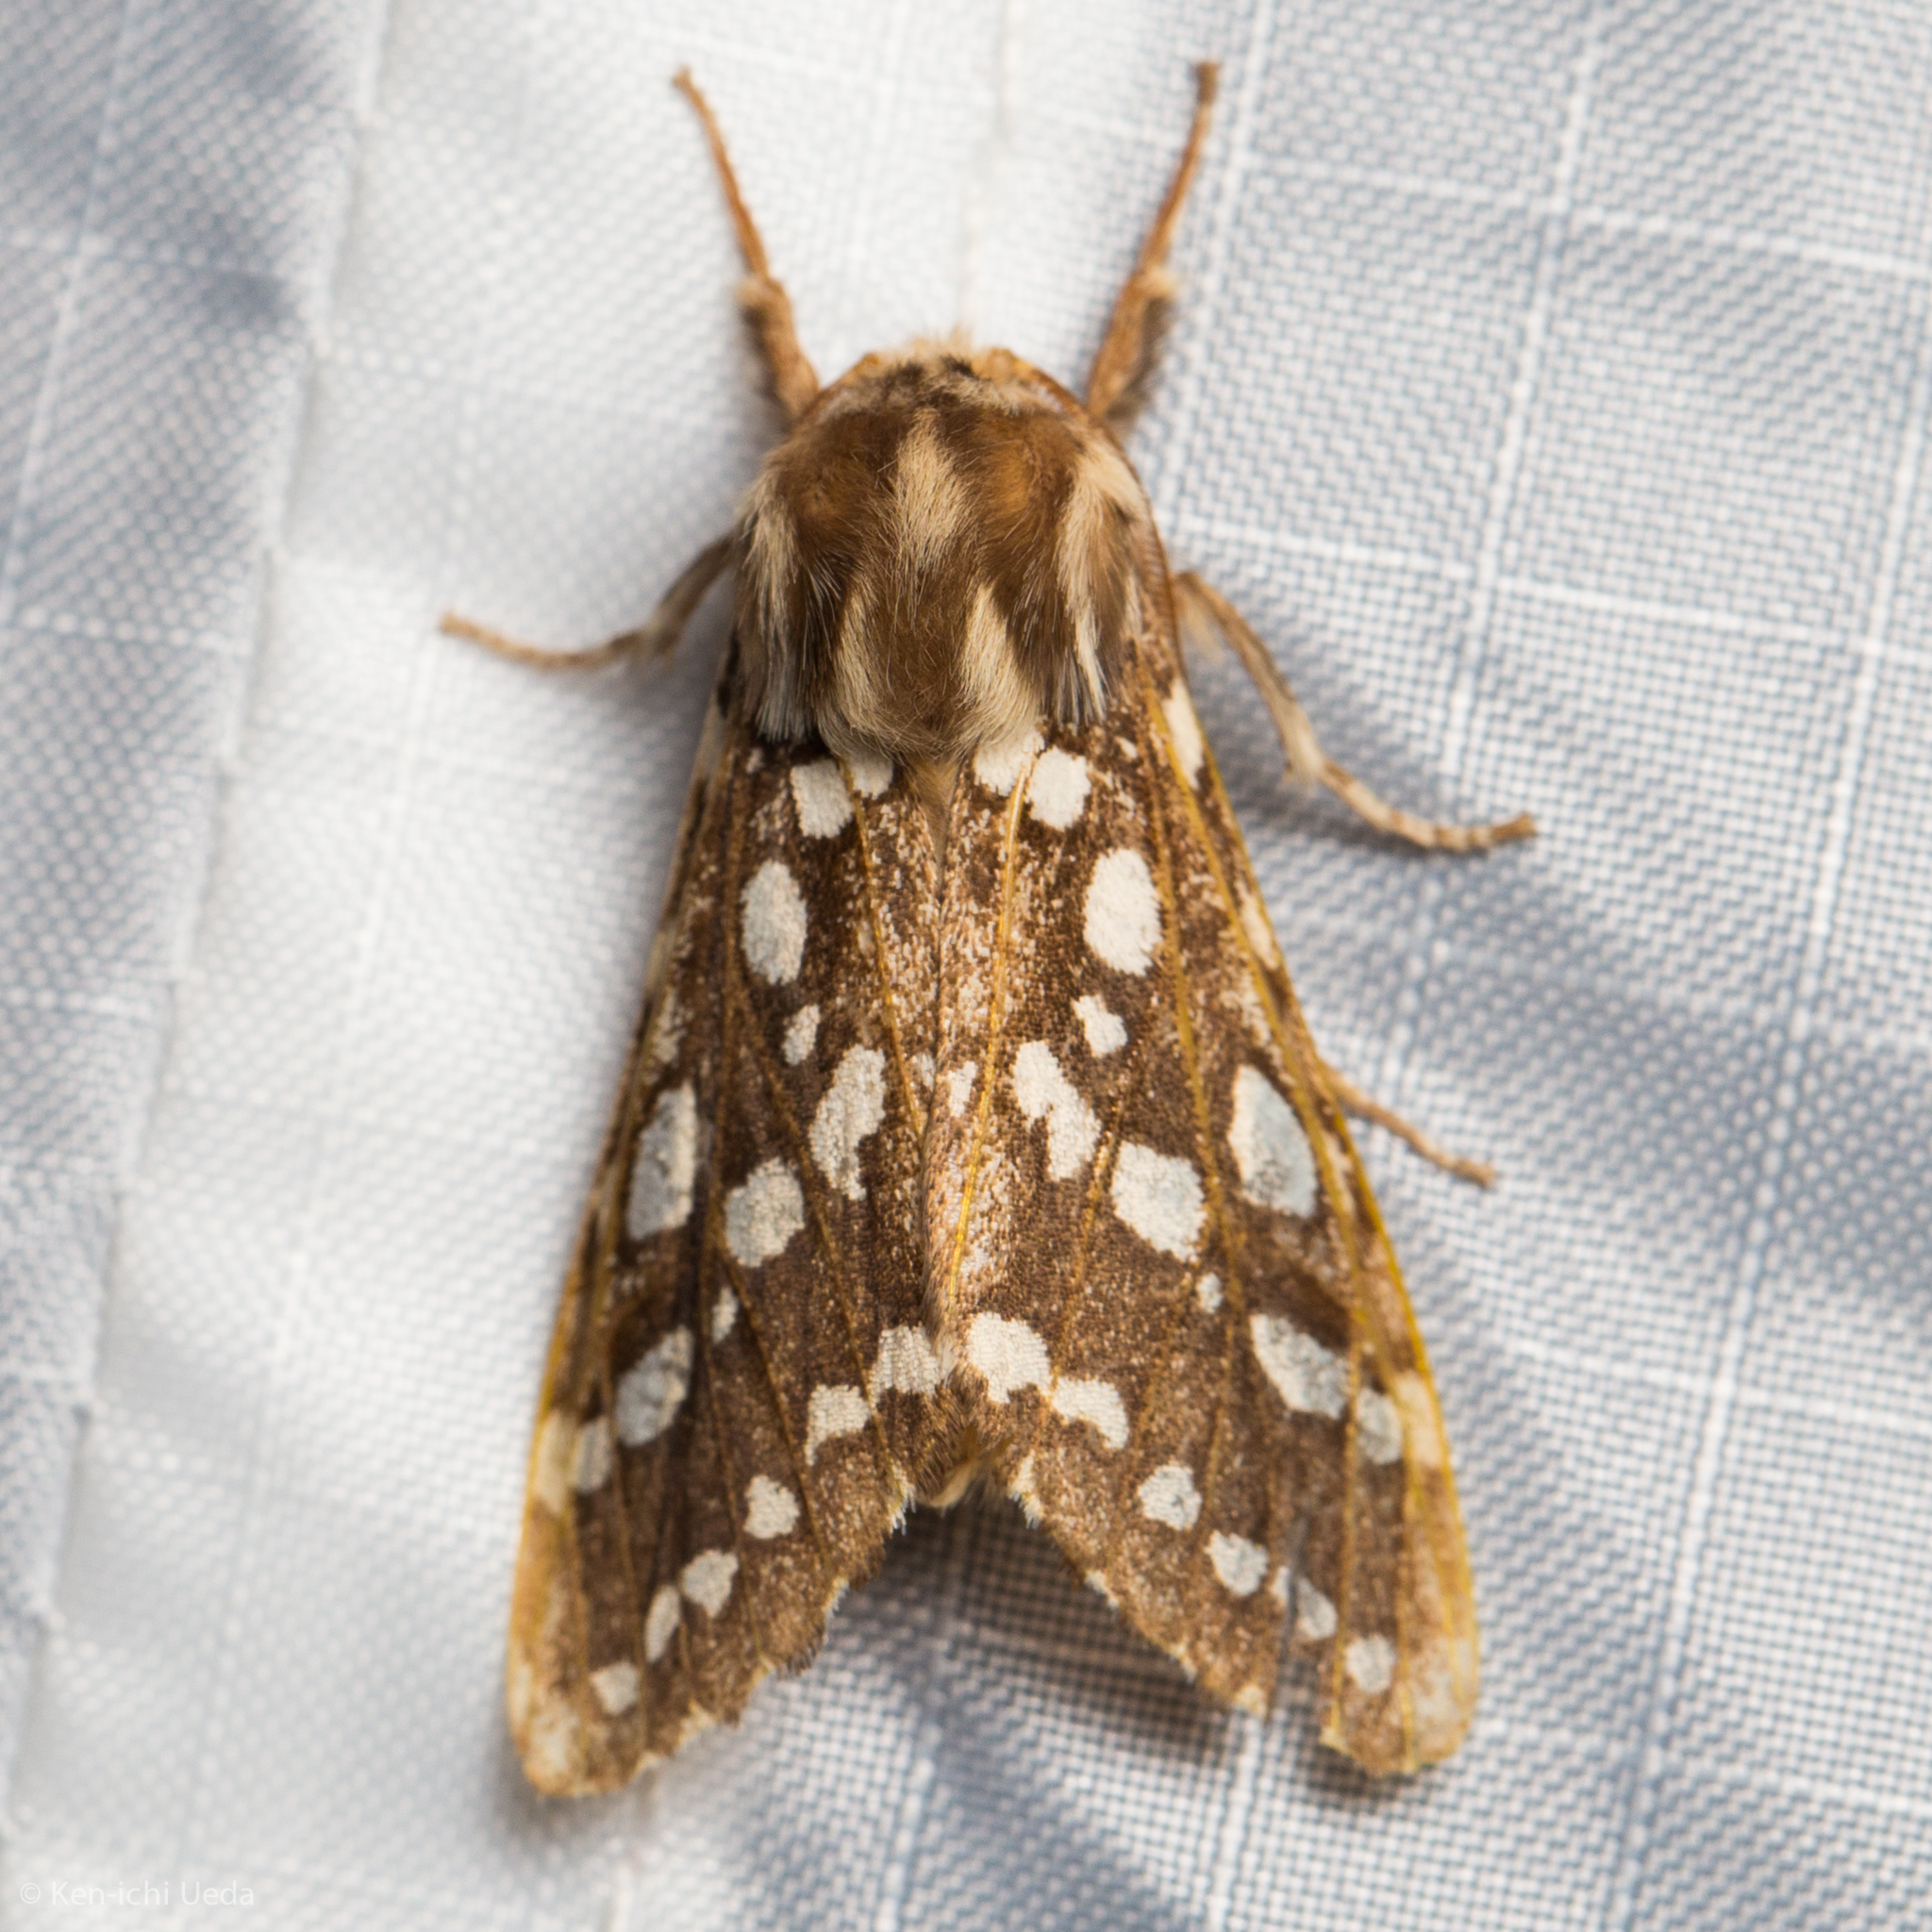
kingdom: Animalia
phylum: Arthropoda
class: Insecta
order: Lepidoptera
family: Erebidae
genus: Lophocampa
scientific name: Lophocampa argentata
